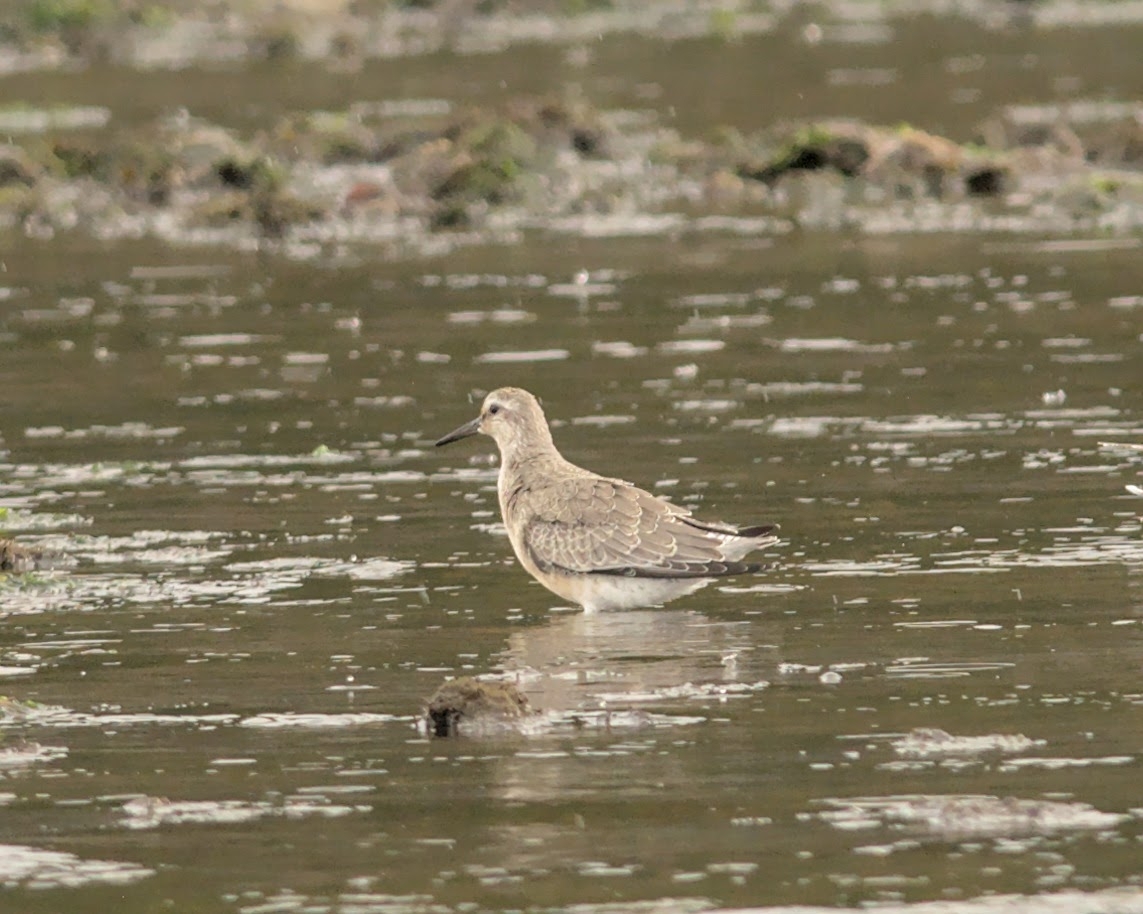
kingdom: Animalia
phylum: Chordata
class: Aves
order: Charadriiformes
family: Scolopacidae
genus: Calidris
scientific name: Calidris canutus
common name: Red knot
